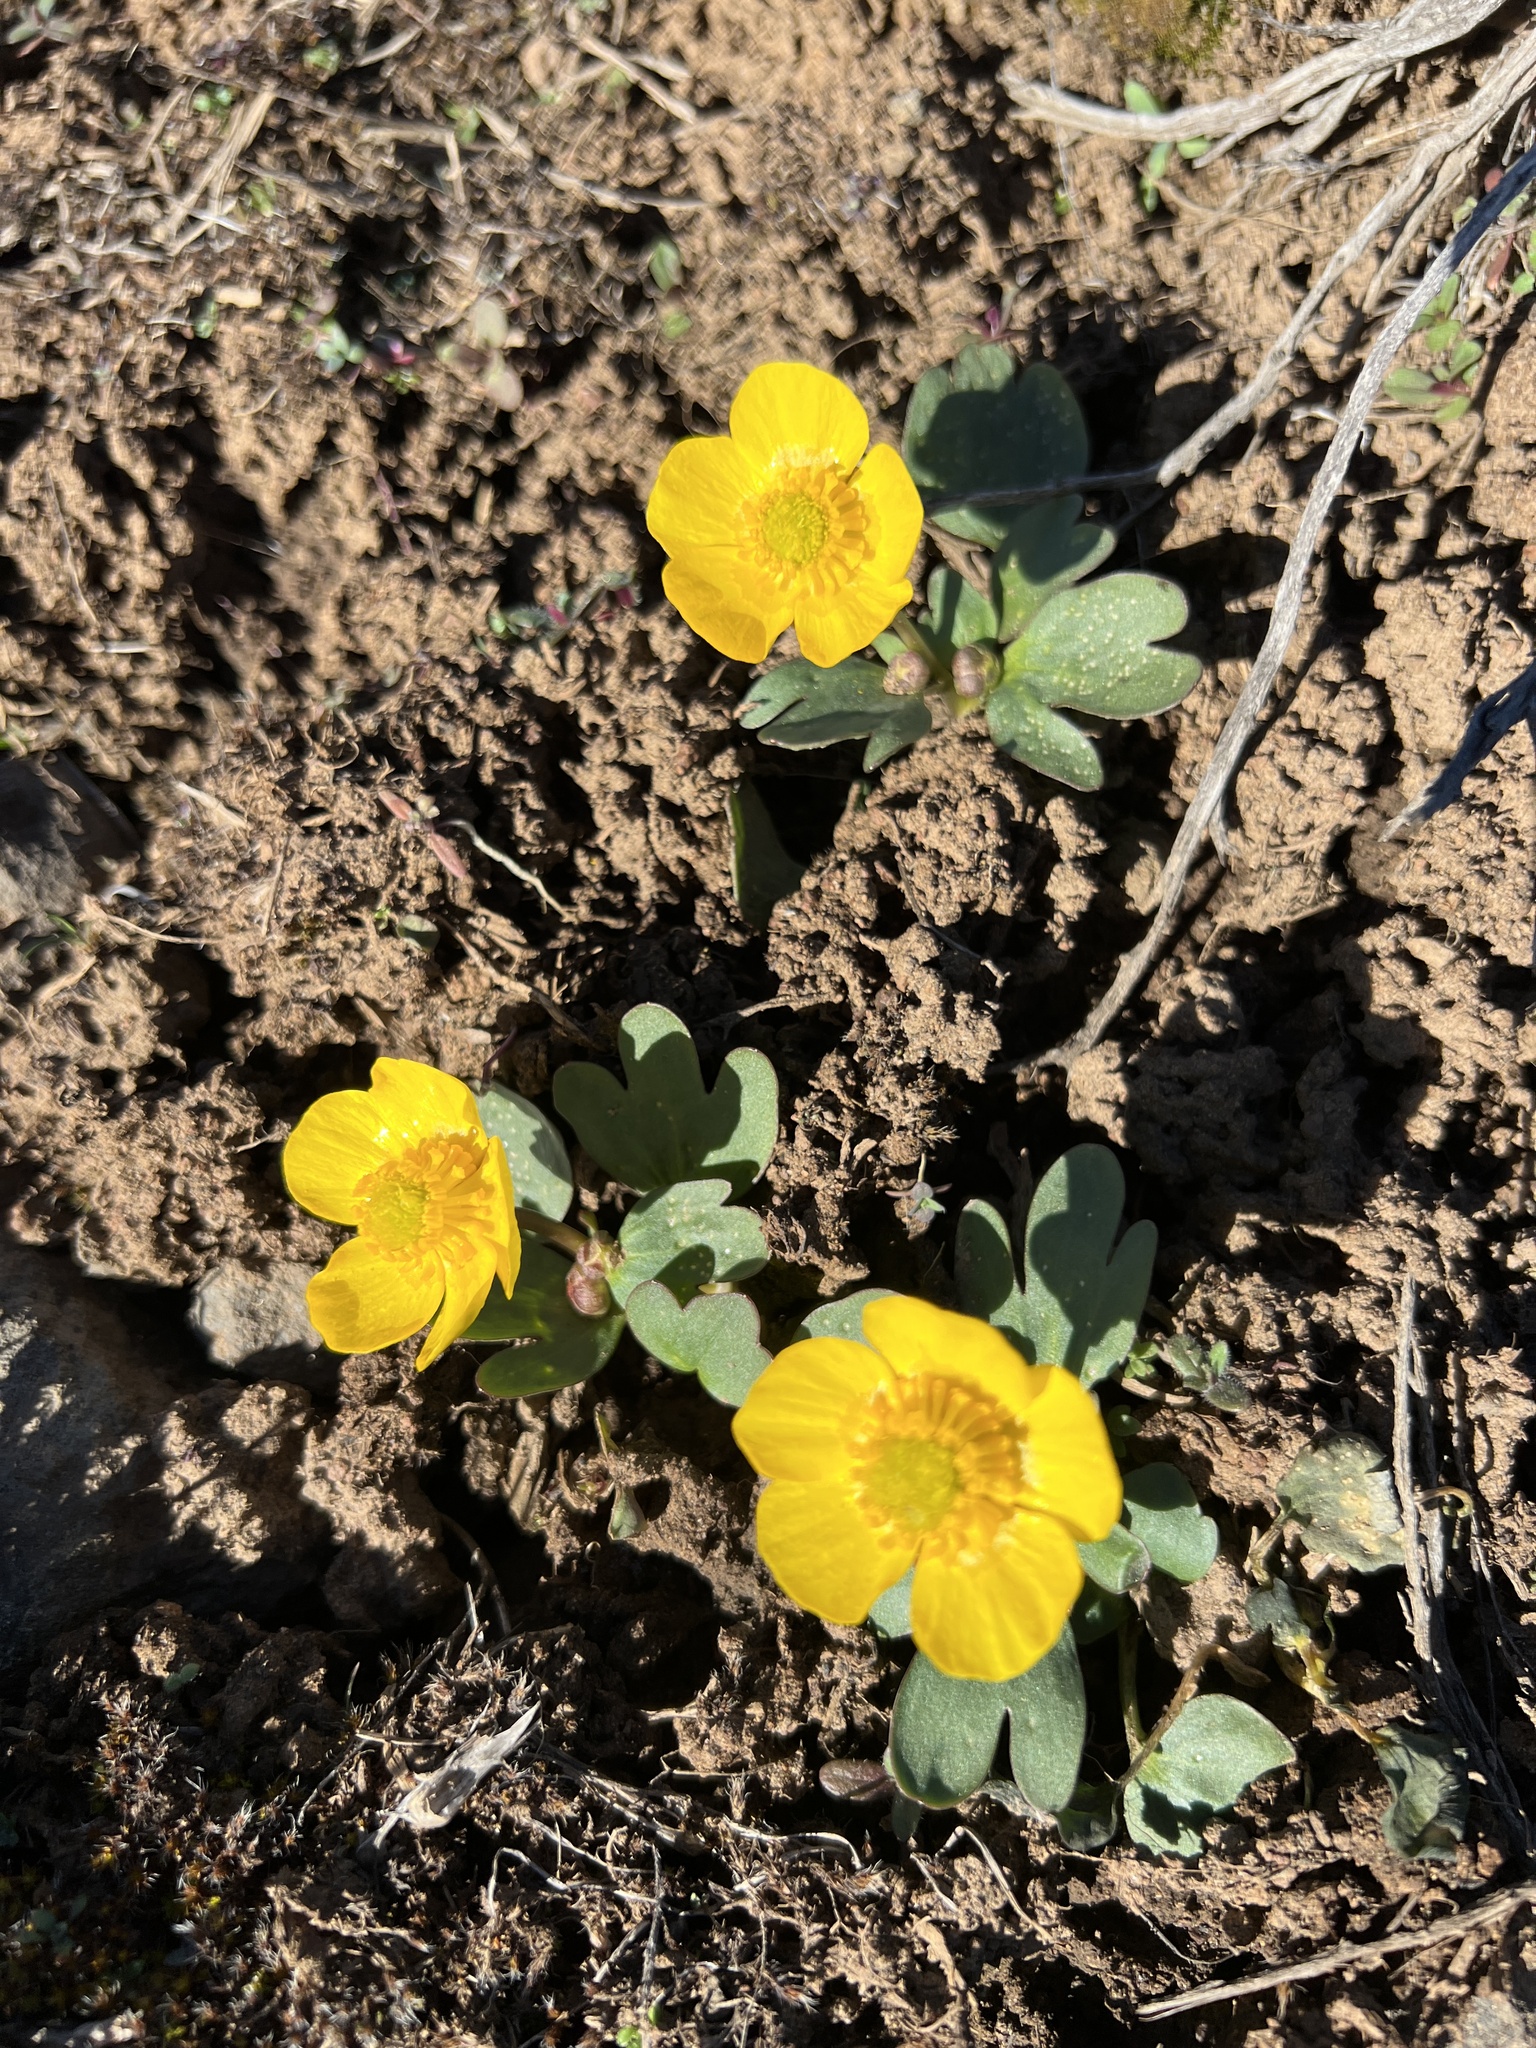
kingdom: Plantae
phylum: Tracheophyta
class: Magnoliopsida
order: Ranunculales
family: Ranunculaceae
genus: Ranunculus
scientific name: Ranunculus glaberrimus
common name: Sagebrush buttercup
